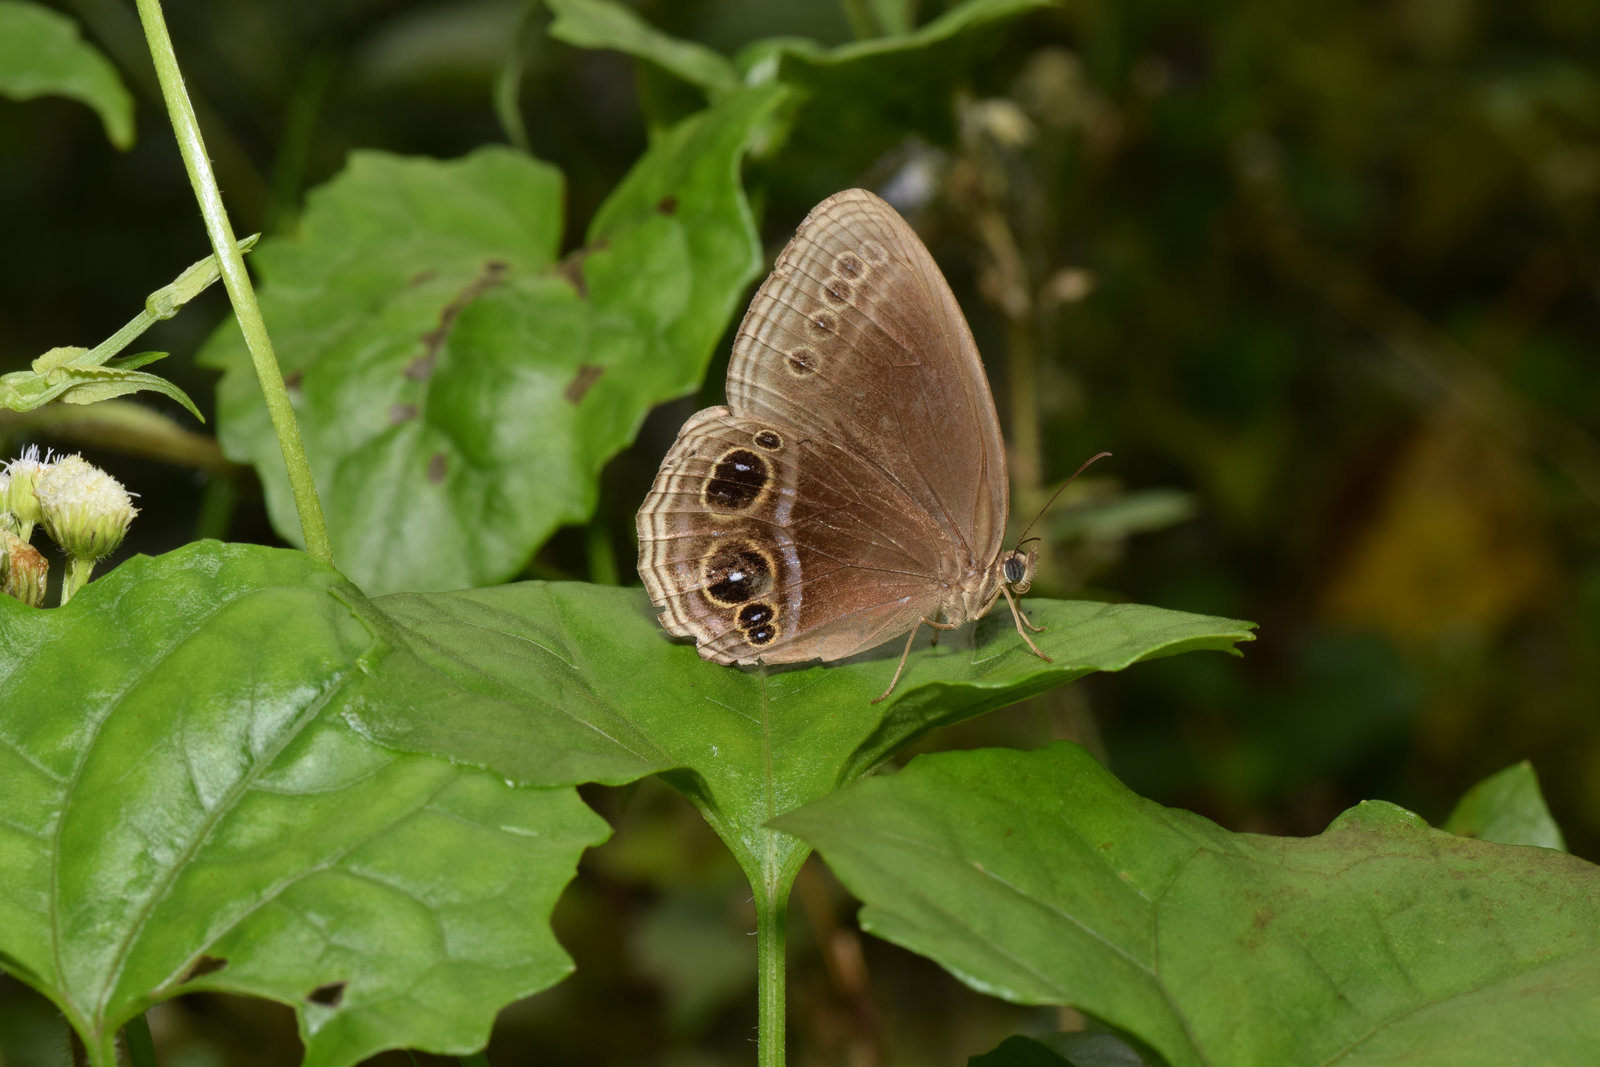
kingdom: Animalia
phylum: Arthropoda
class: Insecta
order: Lepidoptera
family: Nymphalidae
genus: Zipaetis
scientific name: Zipaetis scylax
